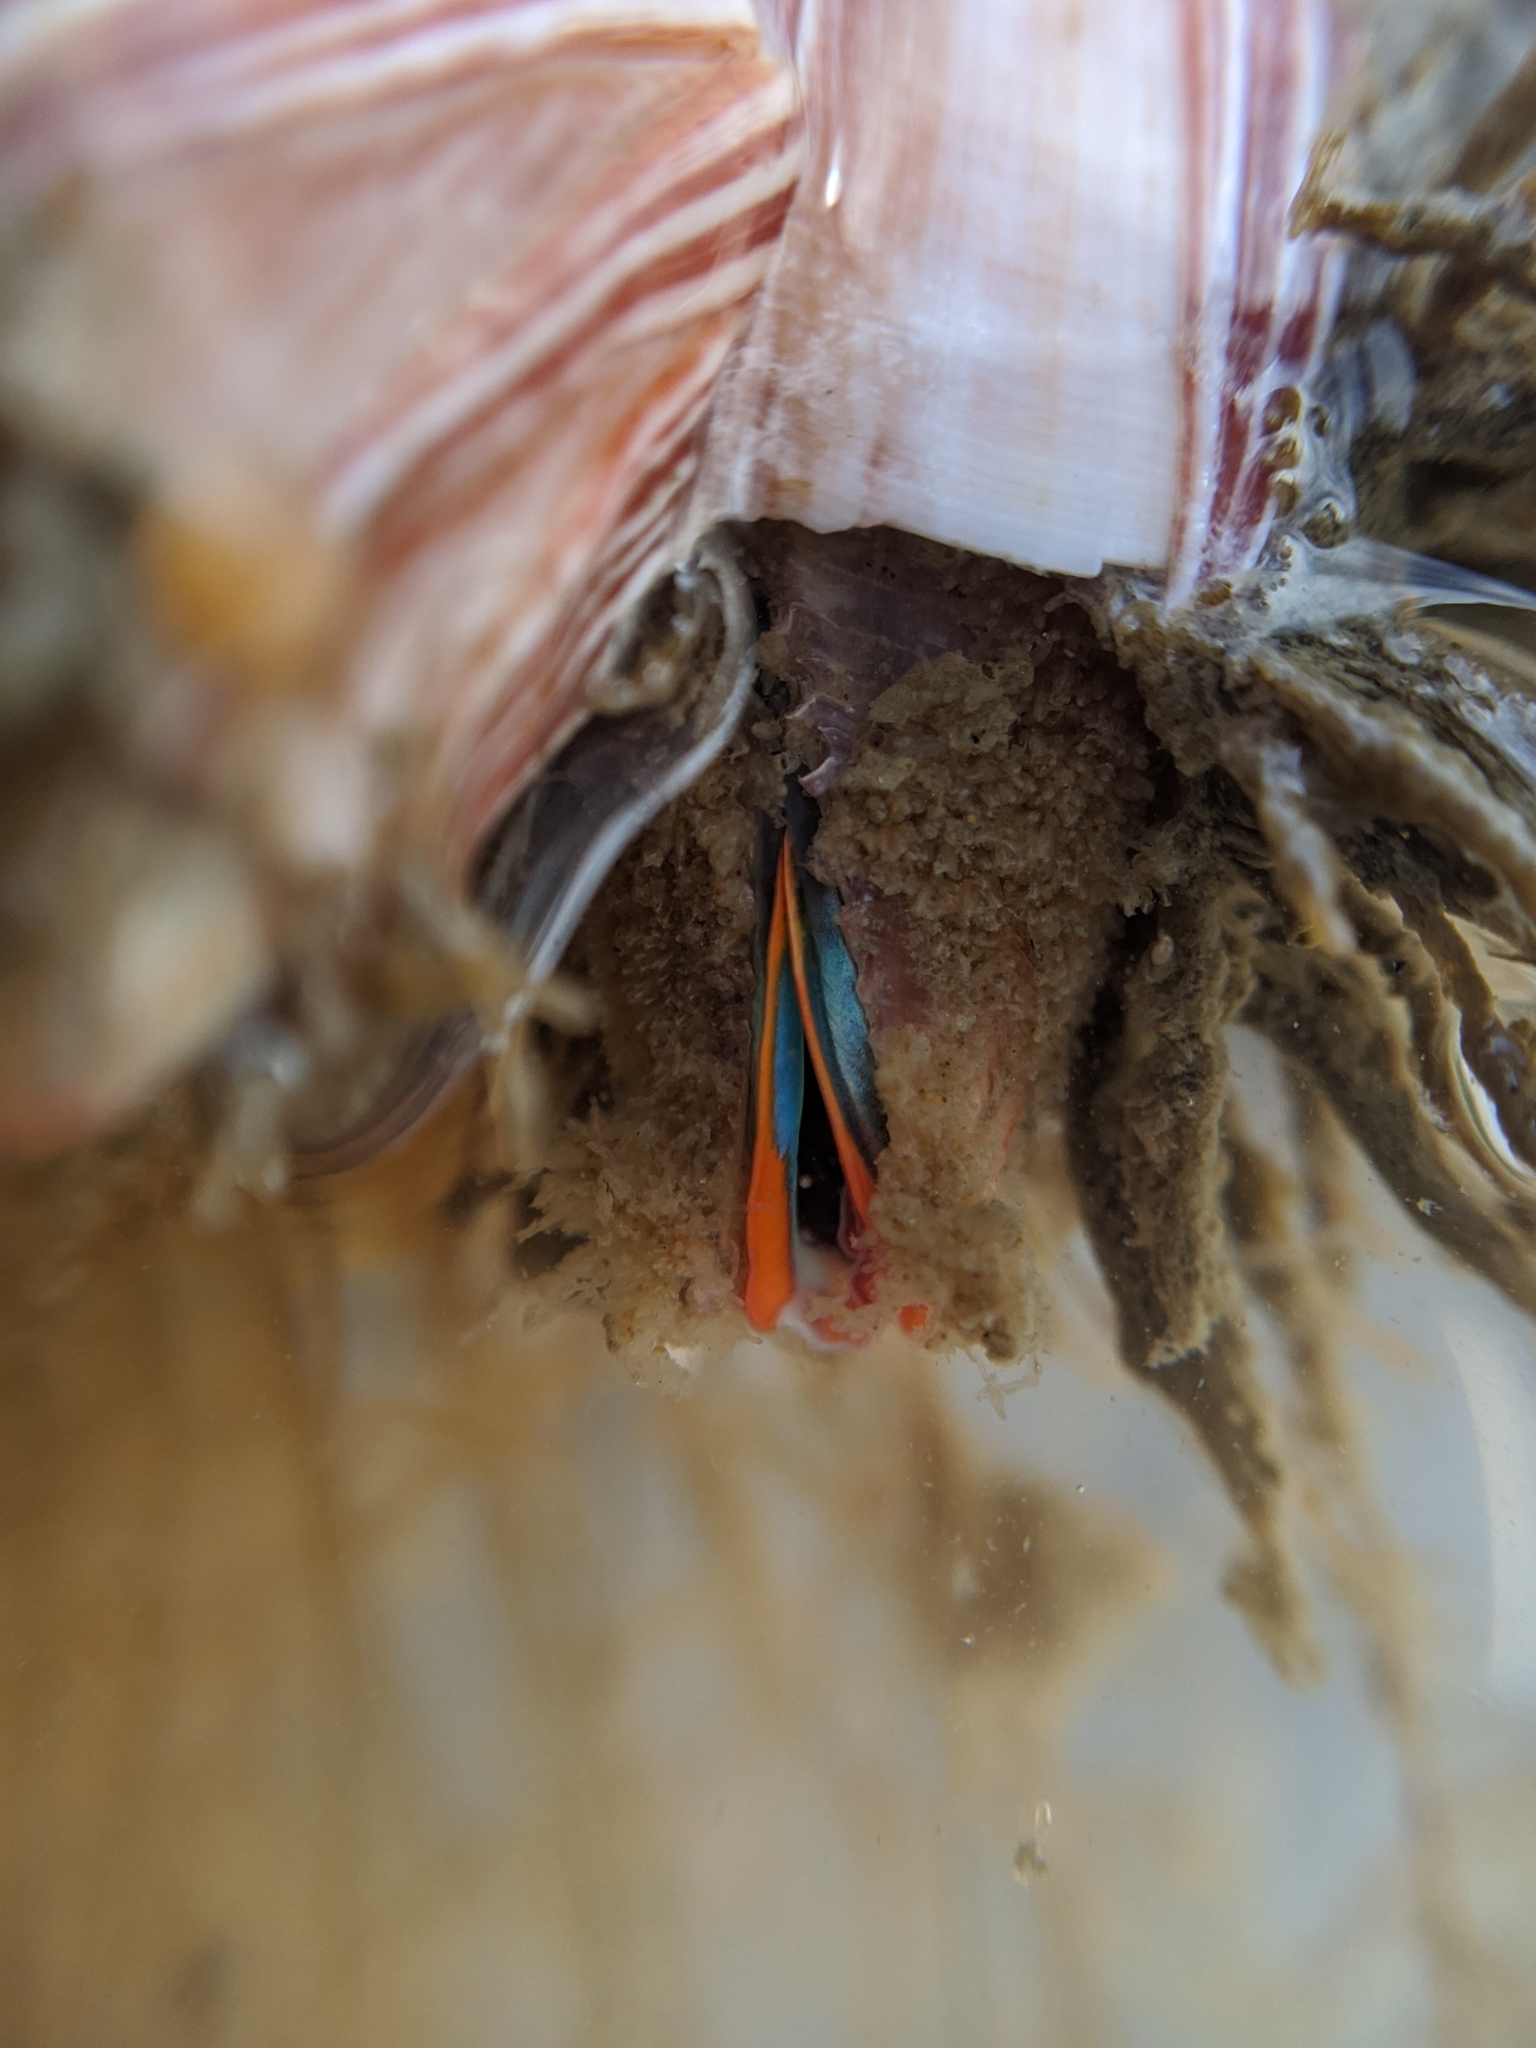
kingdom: Animalia
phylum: Arthropoda
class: Maxillopoda
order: Sessilia
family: Balanidae
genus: Megabalanus
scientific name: Megabalanus californicus
